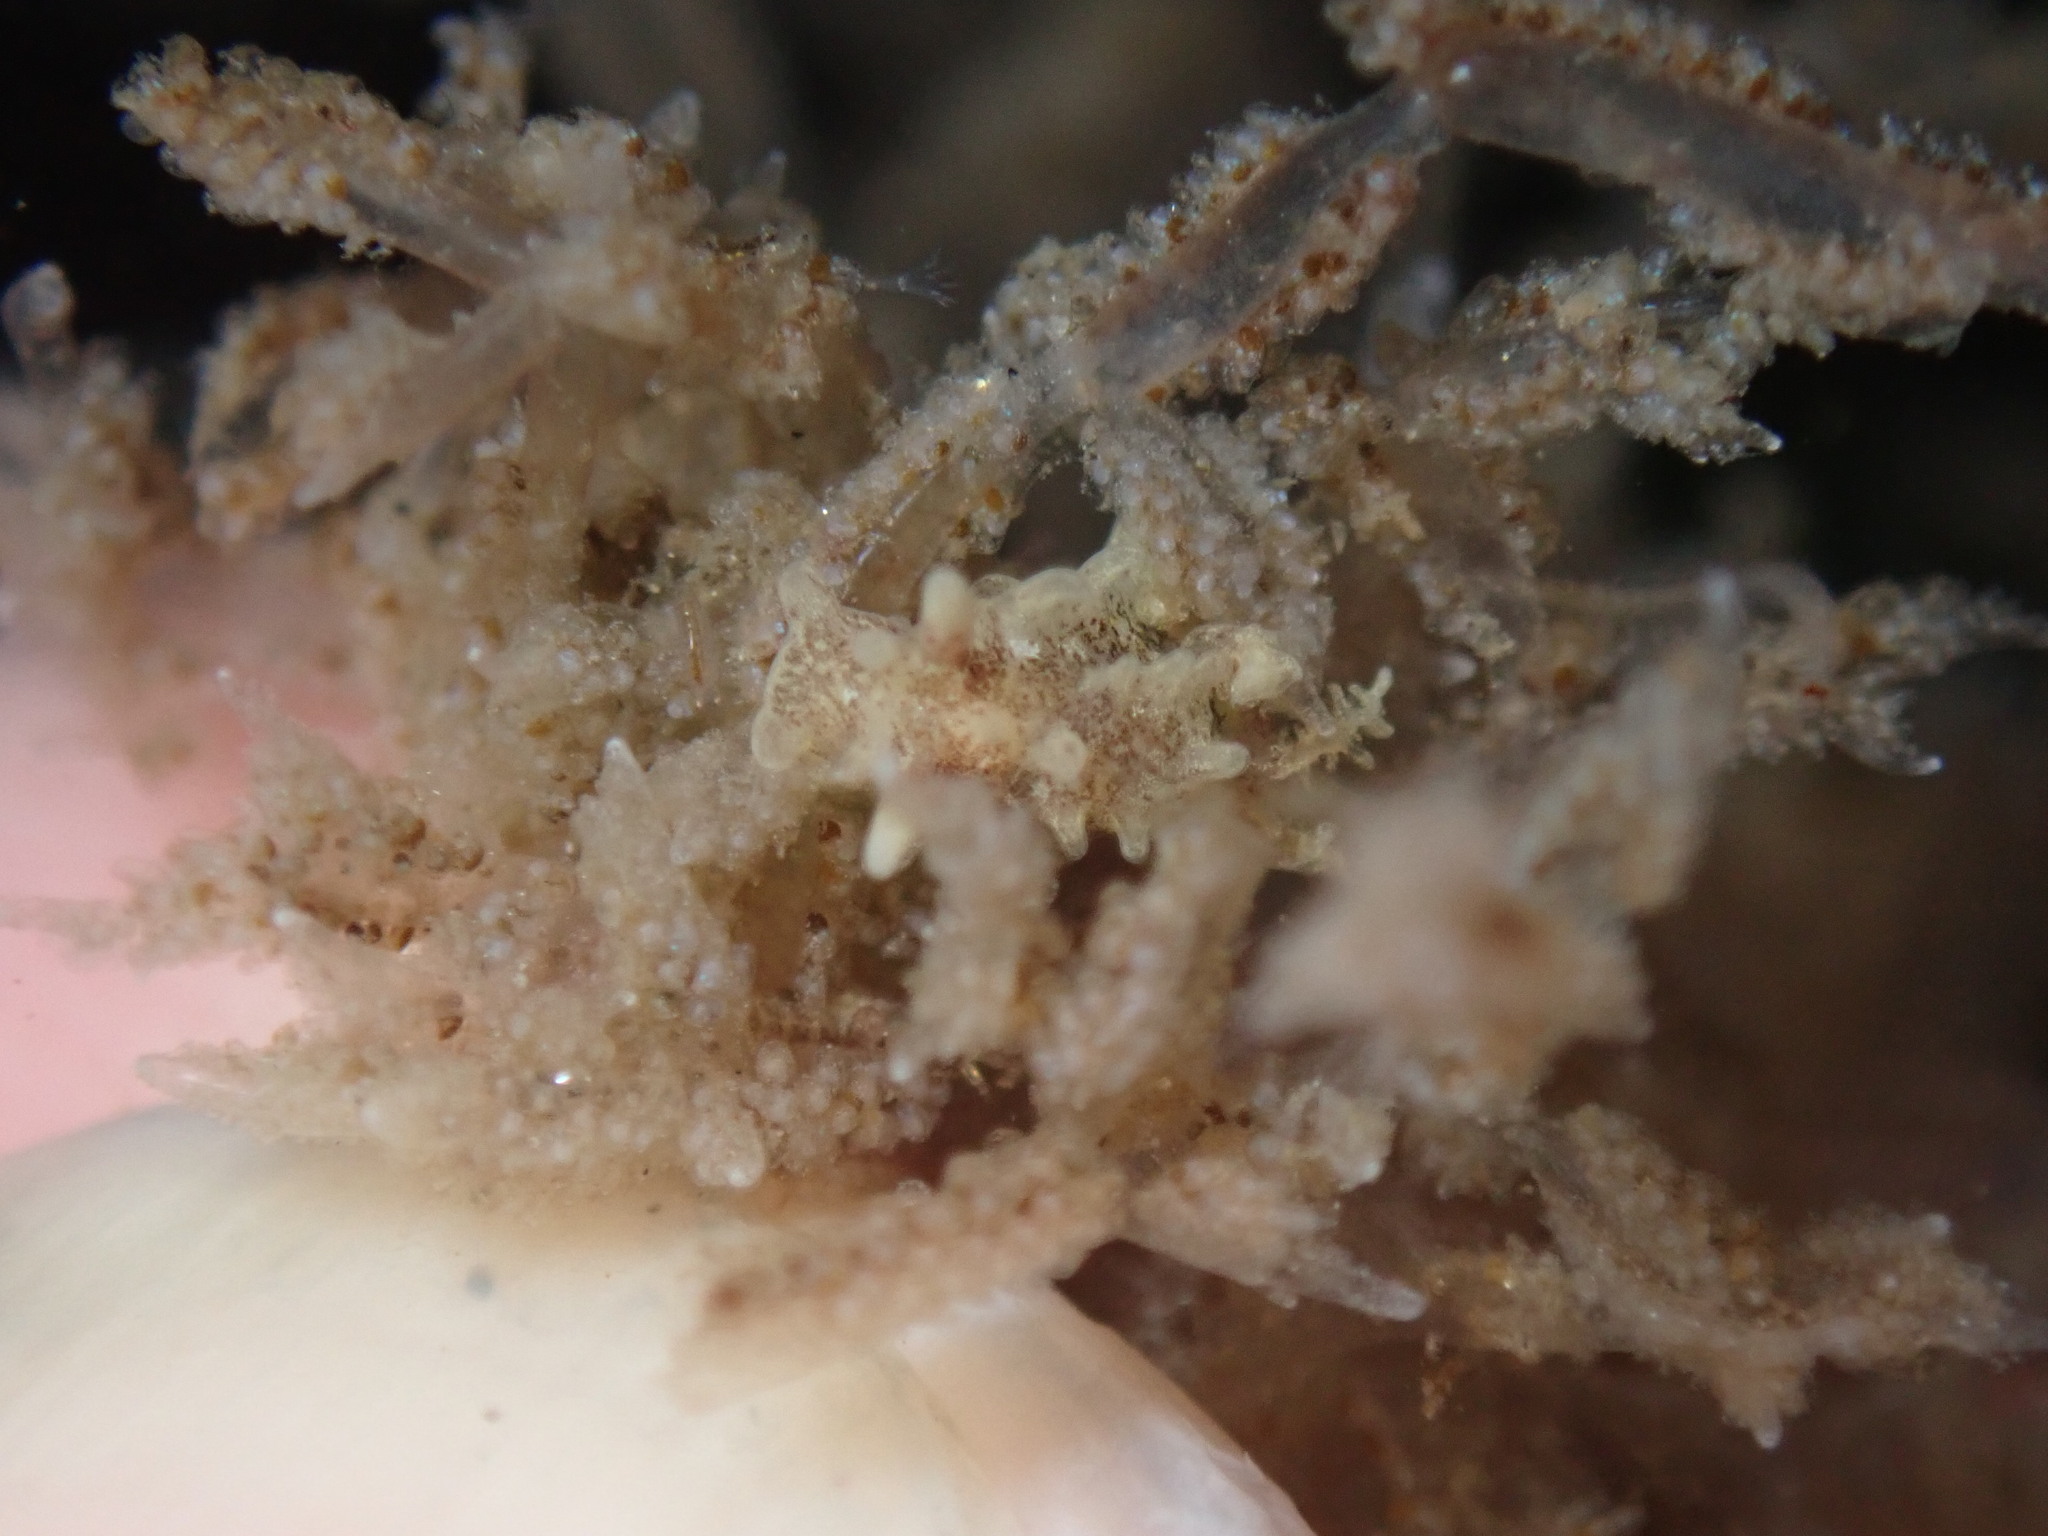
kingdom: Animalia
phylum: Mollusca
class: Gastropoda
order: Nudibranchia
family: Goniodorididae
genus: Okenia
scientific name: Okenia
